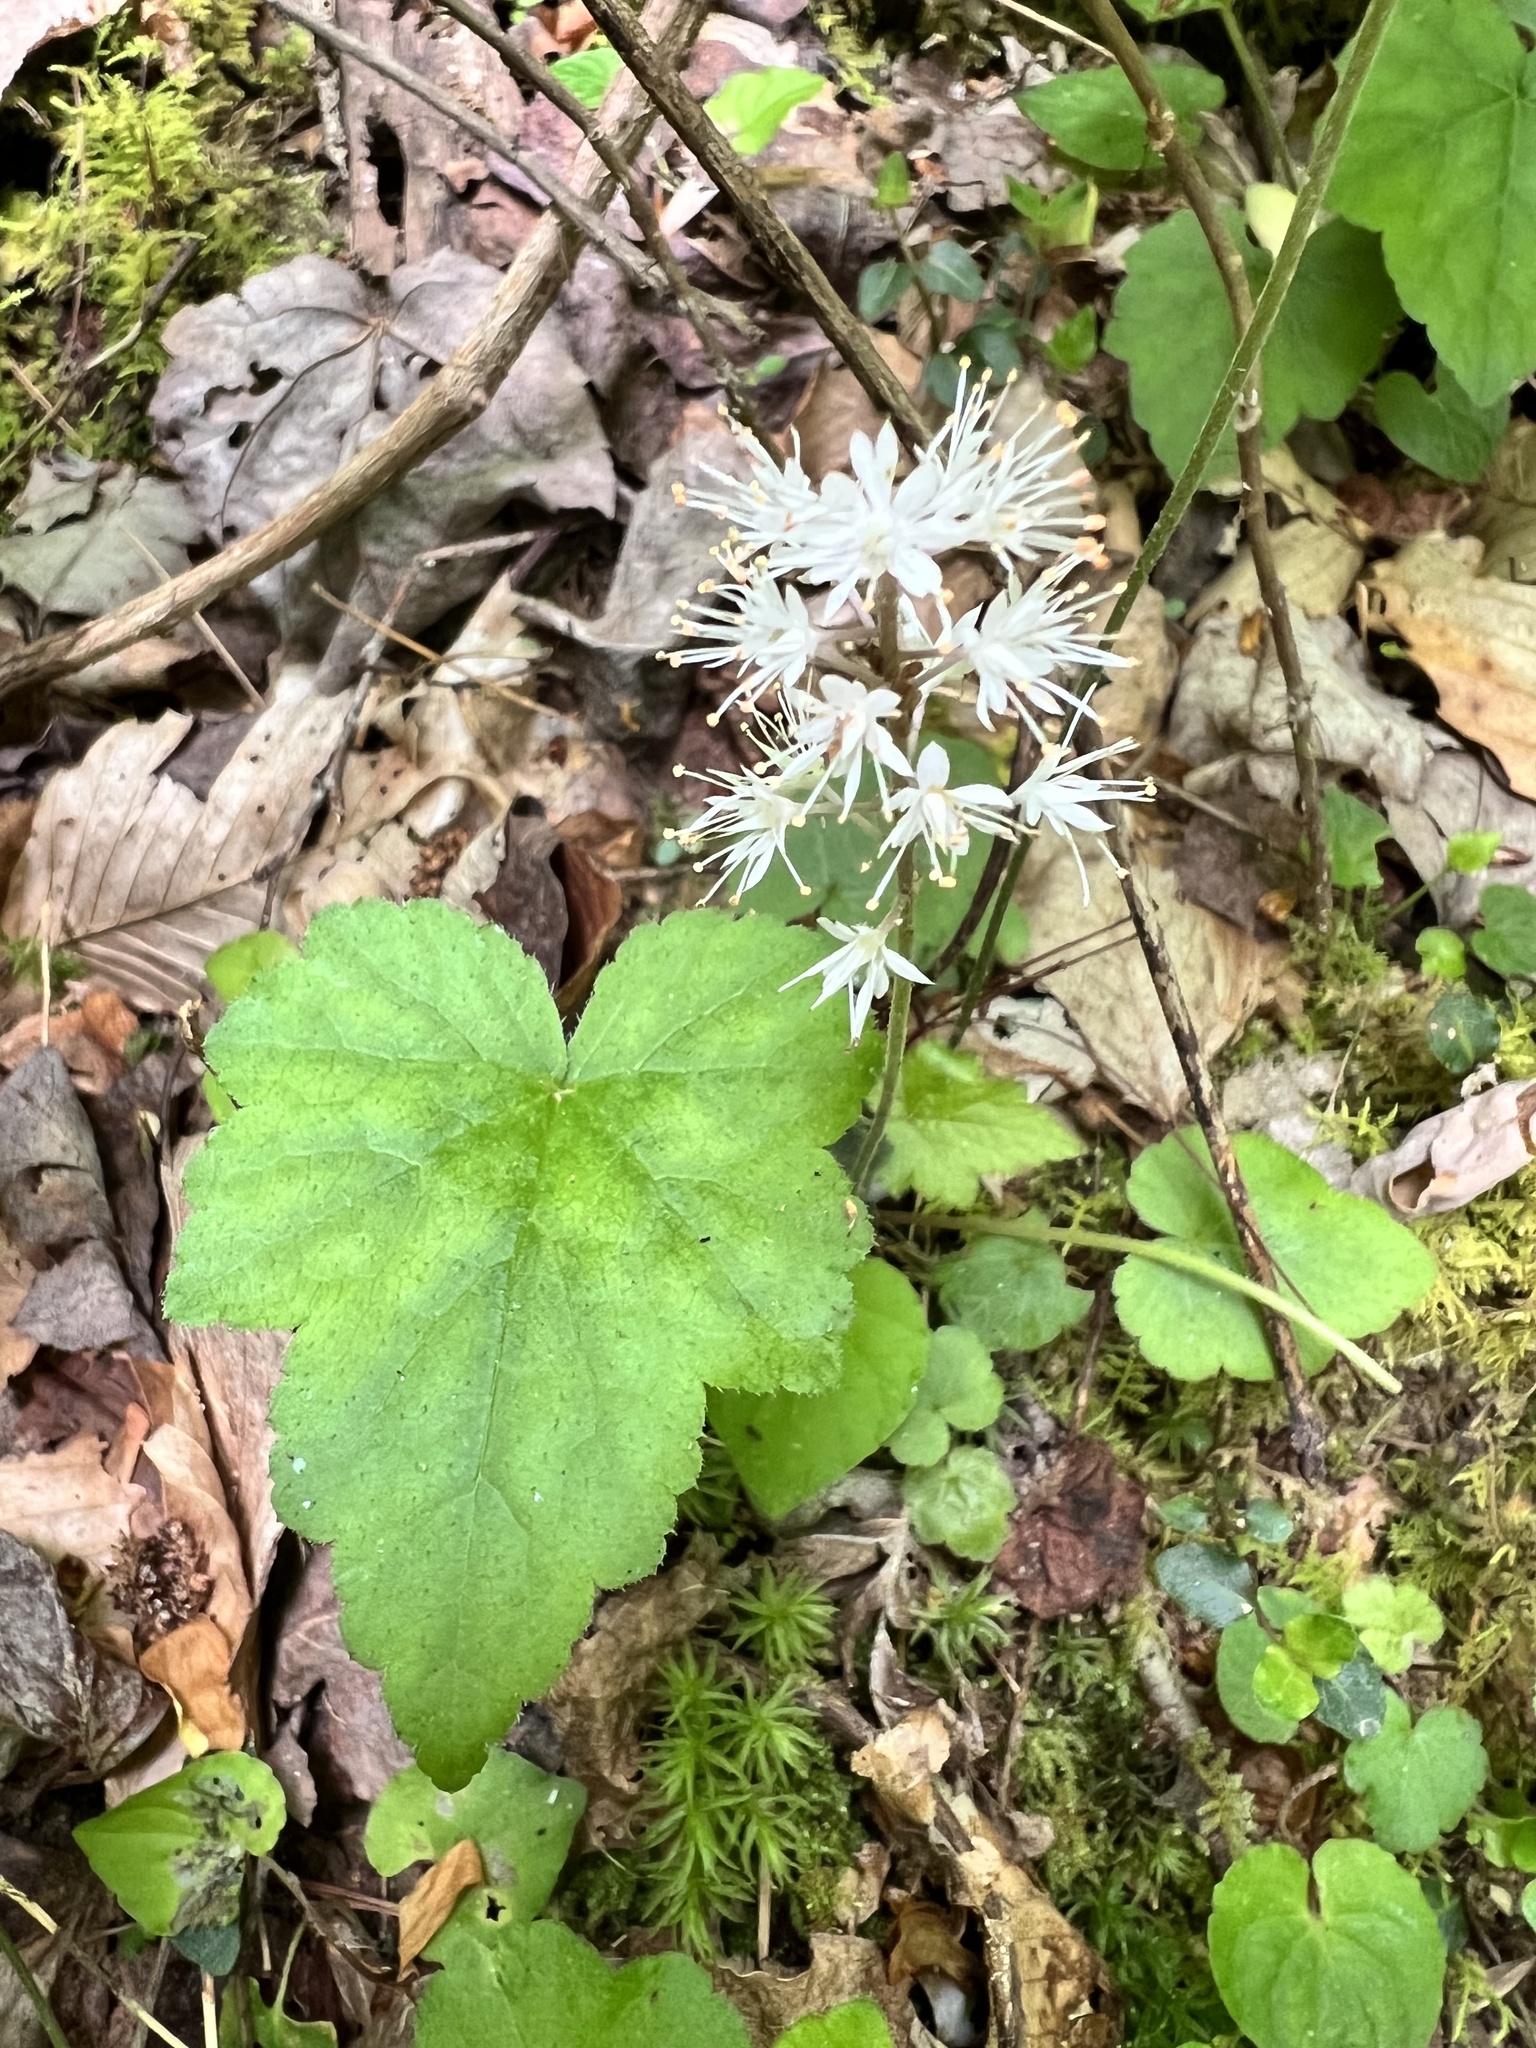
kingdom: Plantae
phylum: Tracheophyta
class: Magnoliopsida
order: Saxifragales
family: Saxifragaceae
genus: Tiarella
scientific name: Tiarella austrina
